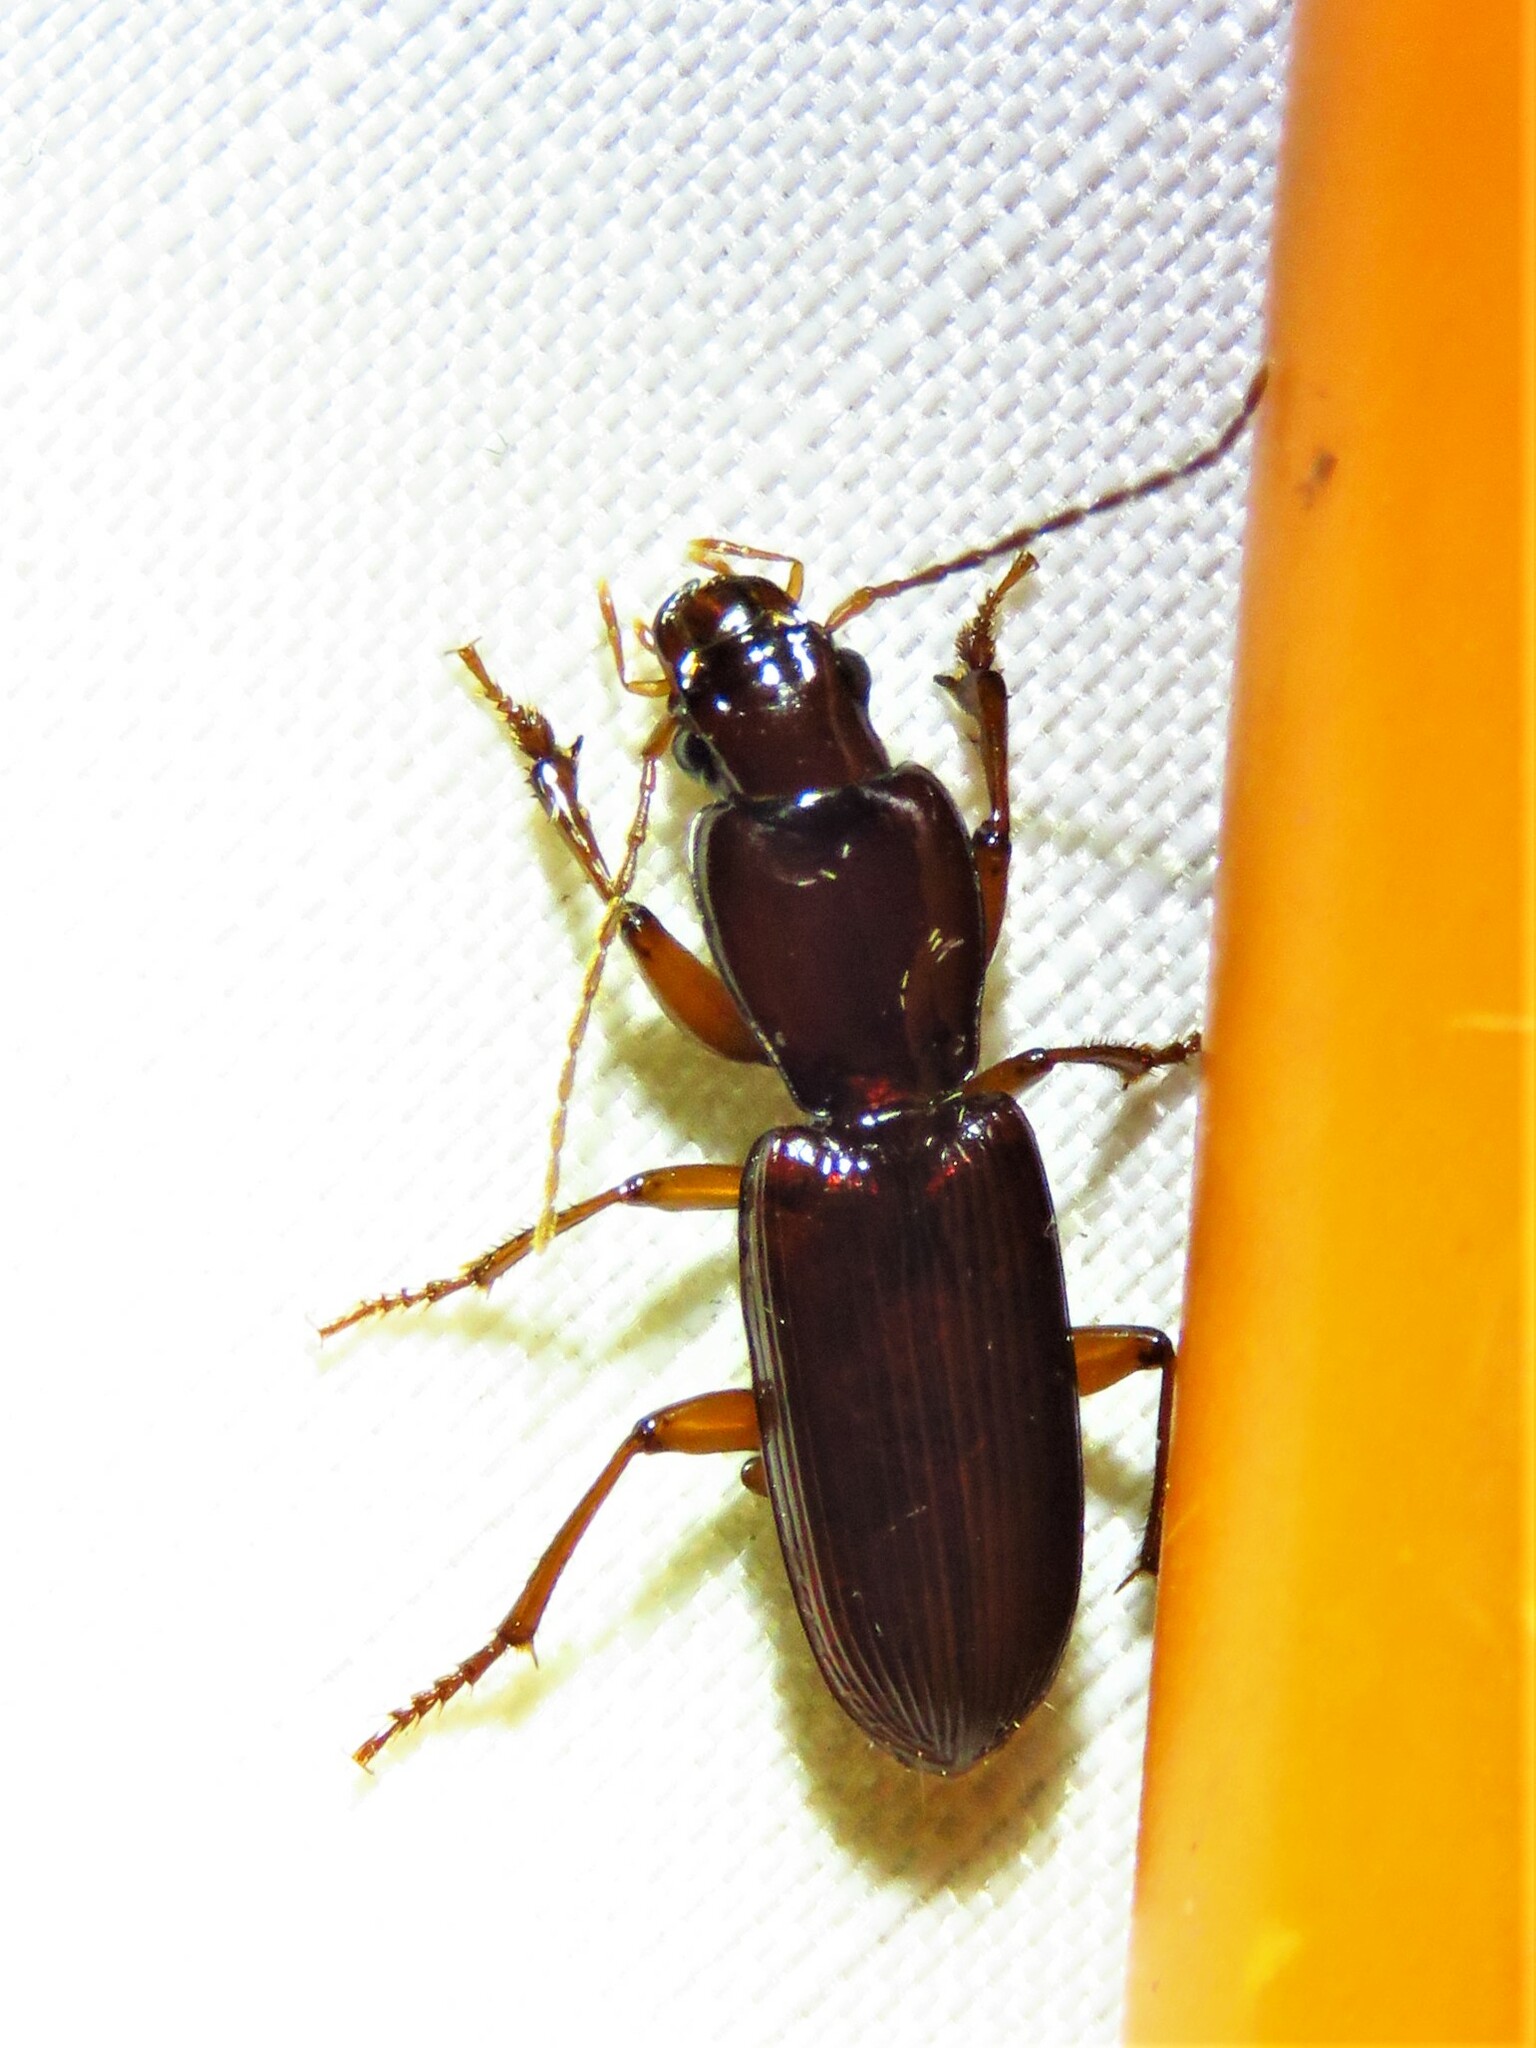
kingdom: Animalia
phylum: Arthropoda
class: Insecta
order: Coleoptera
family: Carabidae
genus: Stenomorphus
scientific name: Stenomorphus californicus
